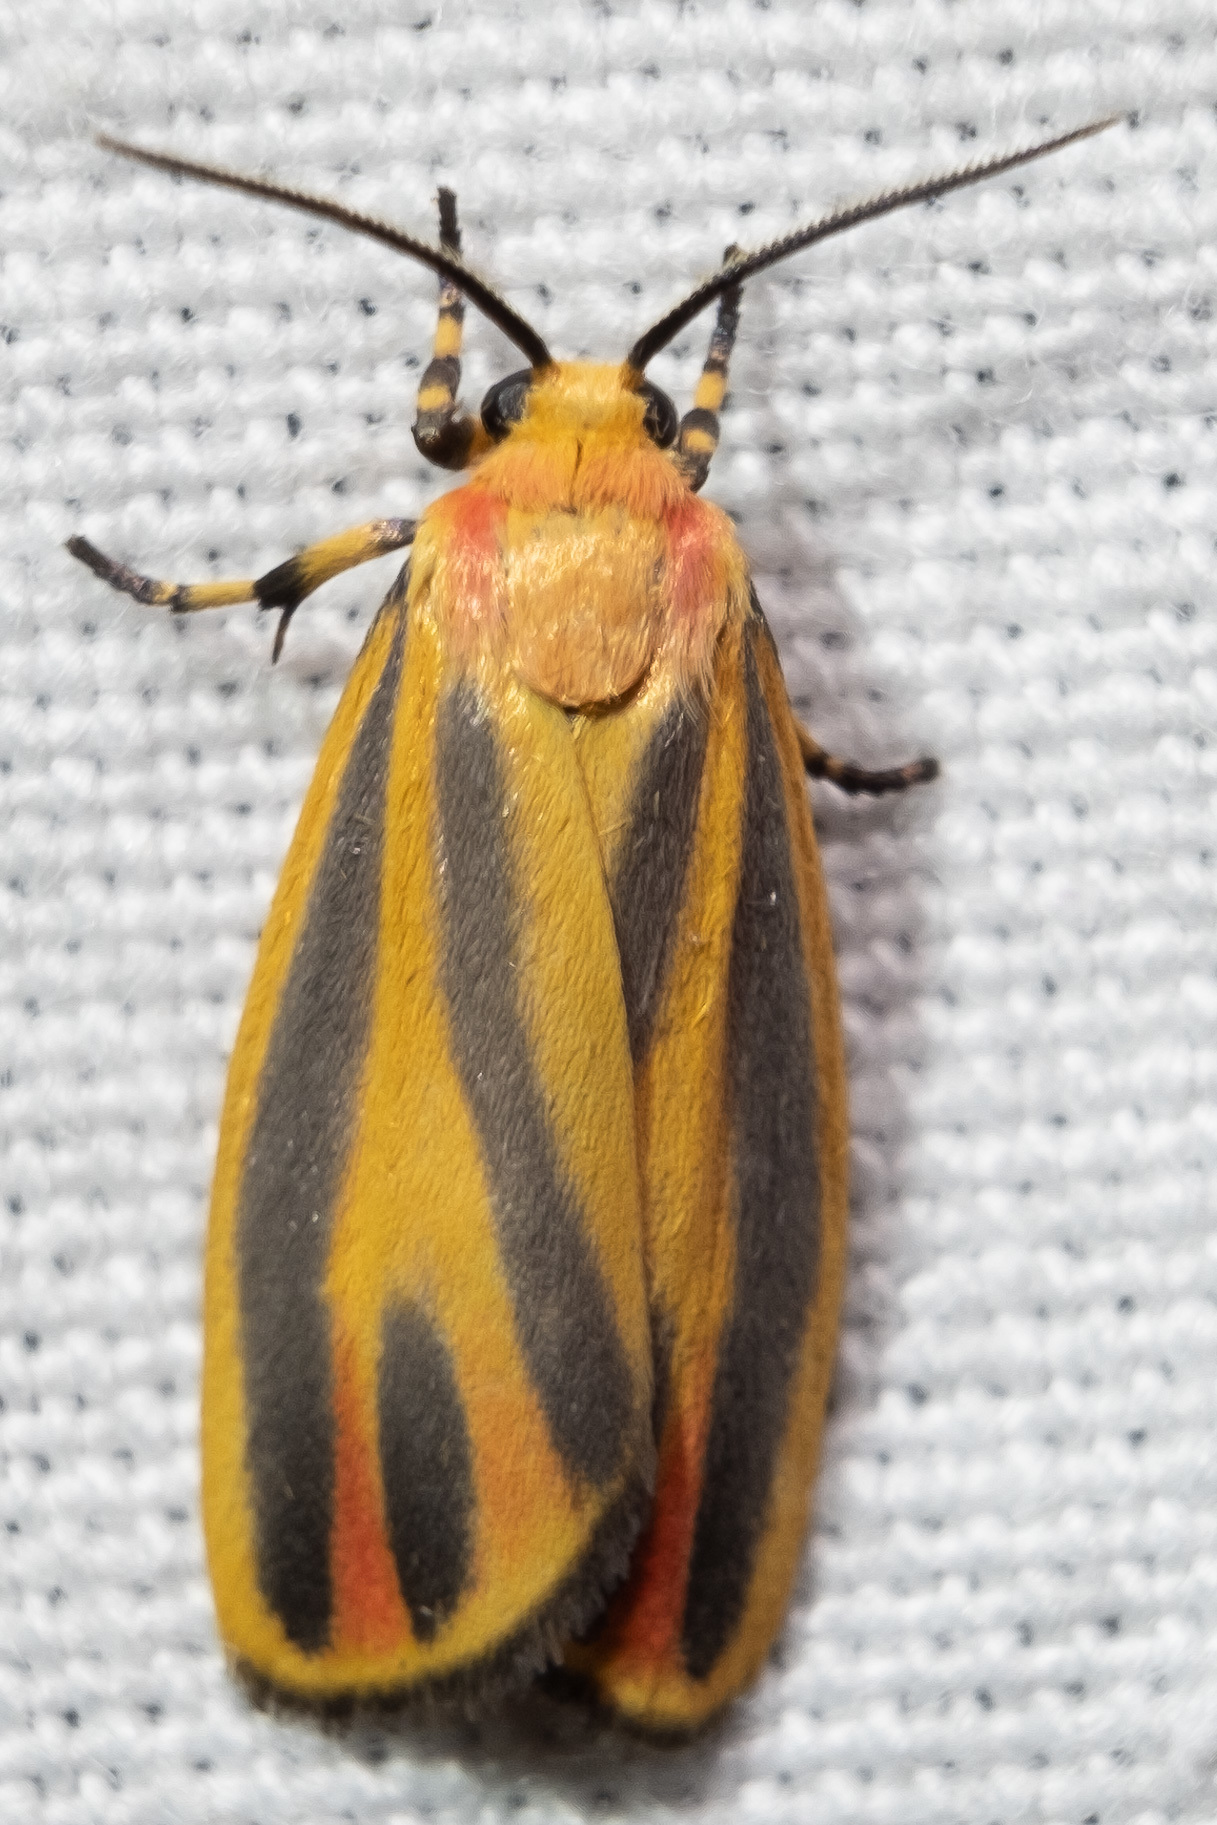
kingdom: Animalia
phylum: Arthropoda
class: Insecta
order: Lepidoptera
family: Erebidae
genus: Hypoprepia
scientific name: Hypoprepia fucosa
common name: Painted lichen moth
